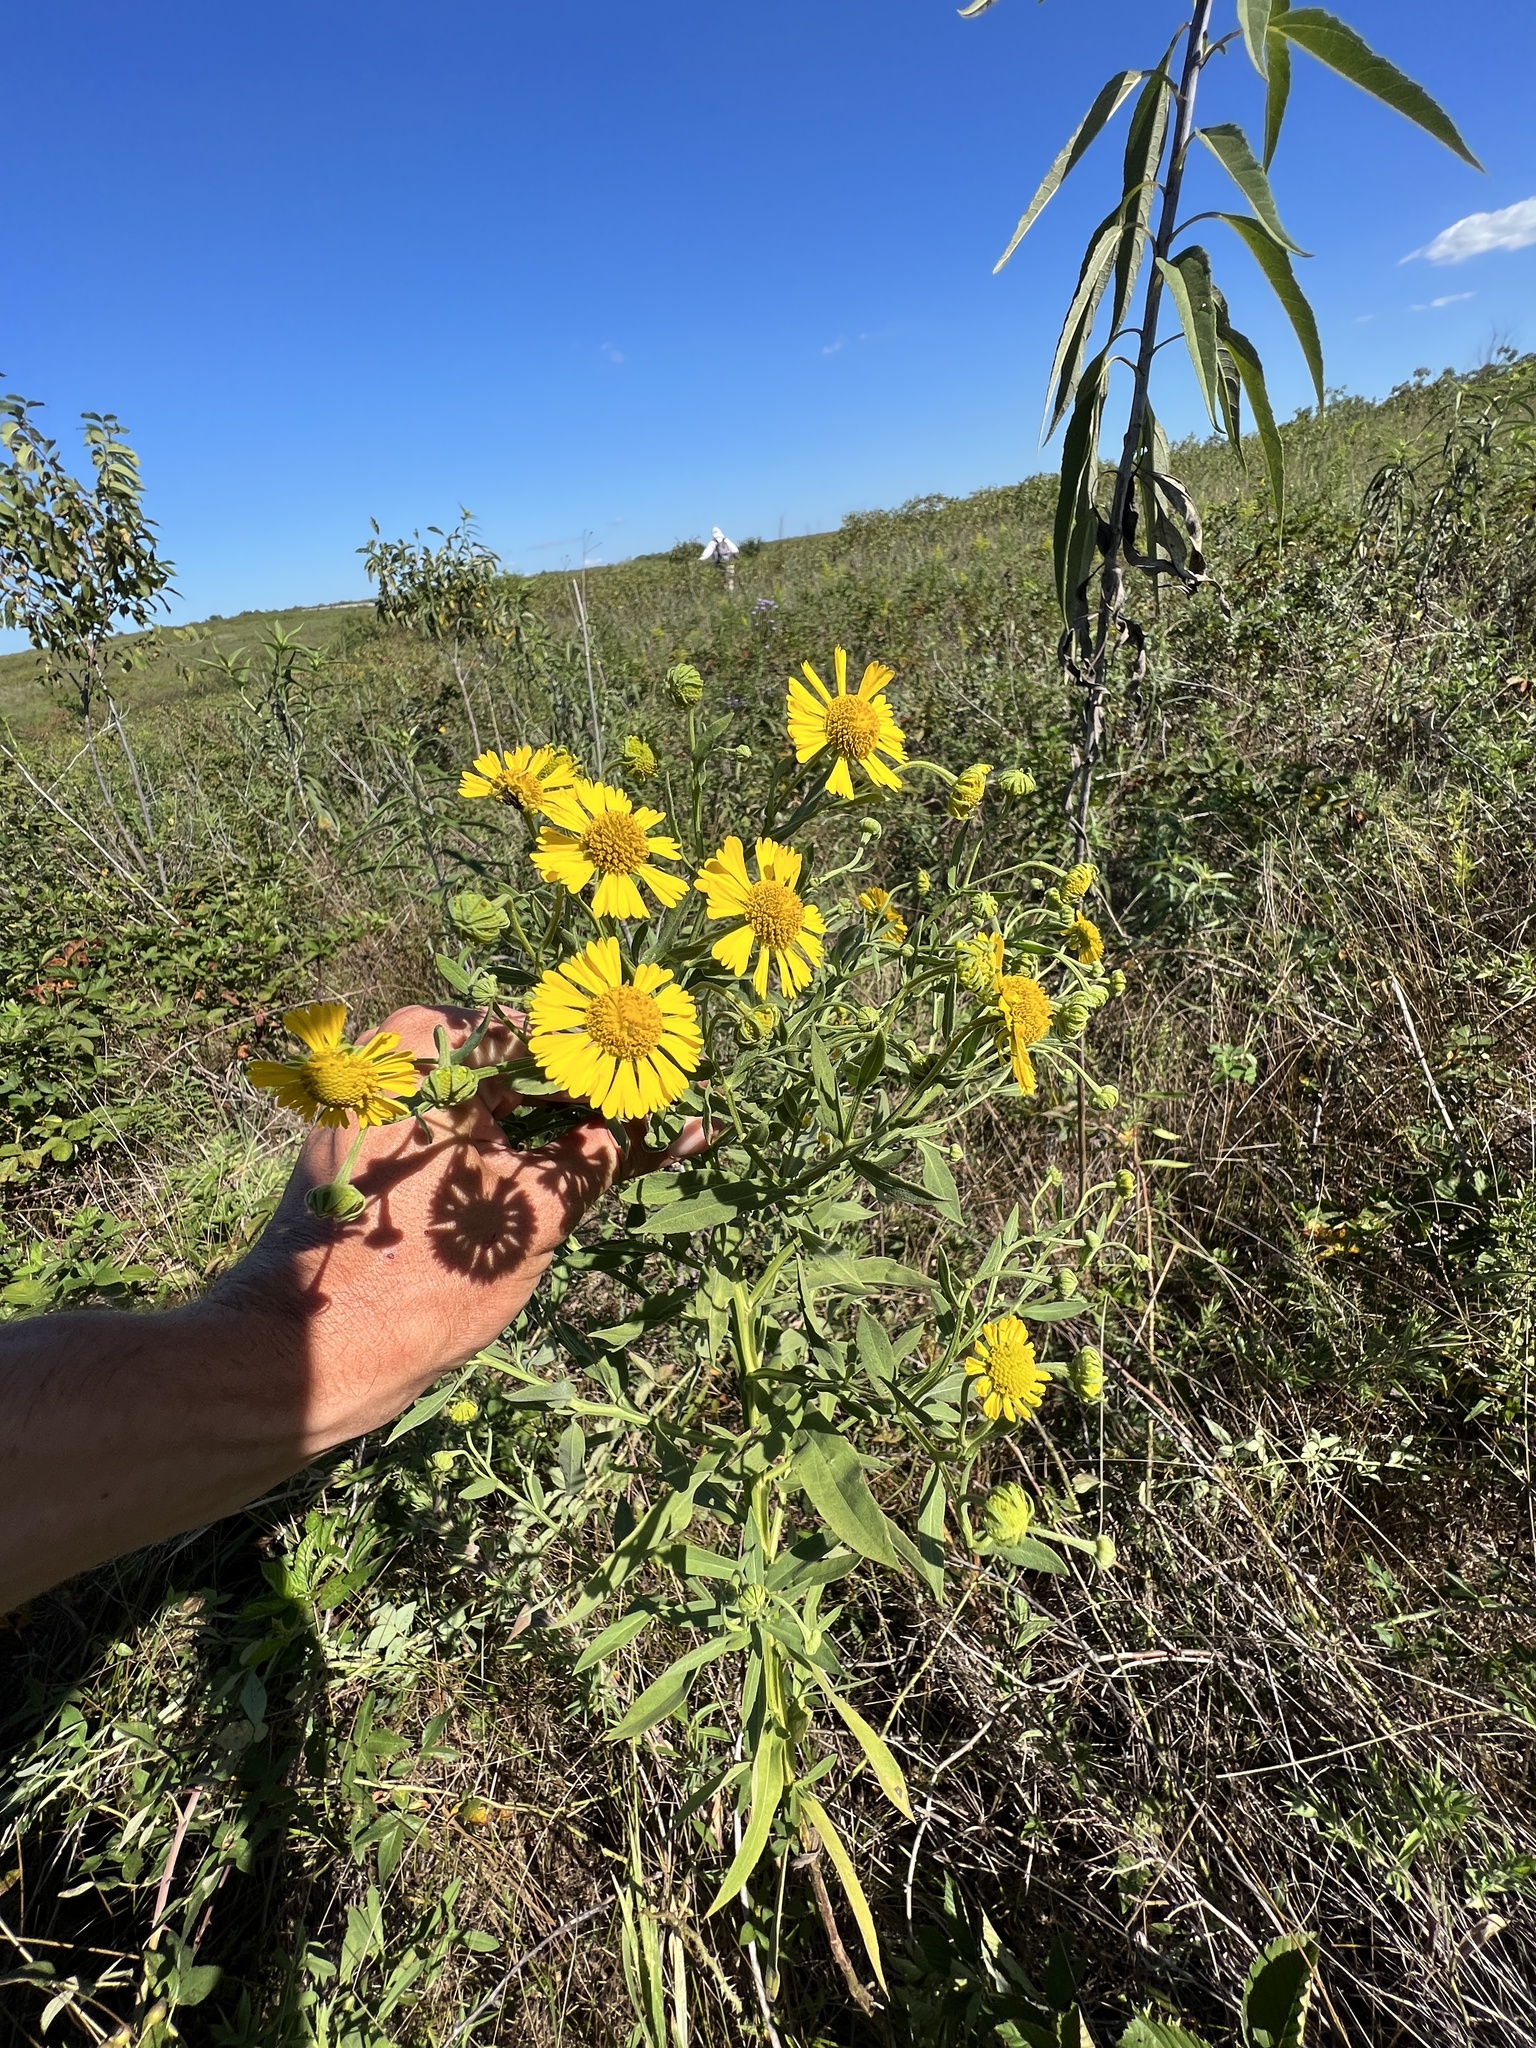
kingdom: Plantae
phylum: Tracheophyta
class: Magnoliopsida
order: Asterales
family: Asteraceae
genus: Helenium
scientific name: Helenium autumnale
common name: Sneezeweed
